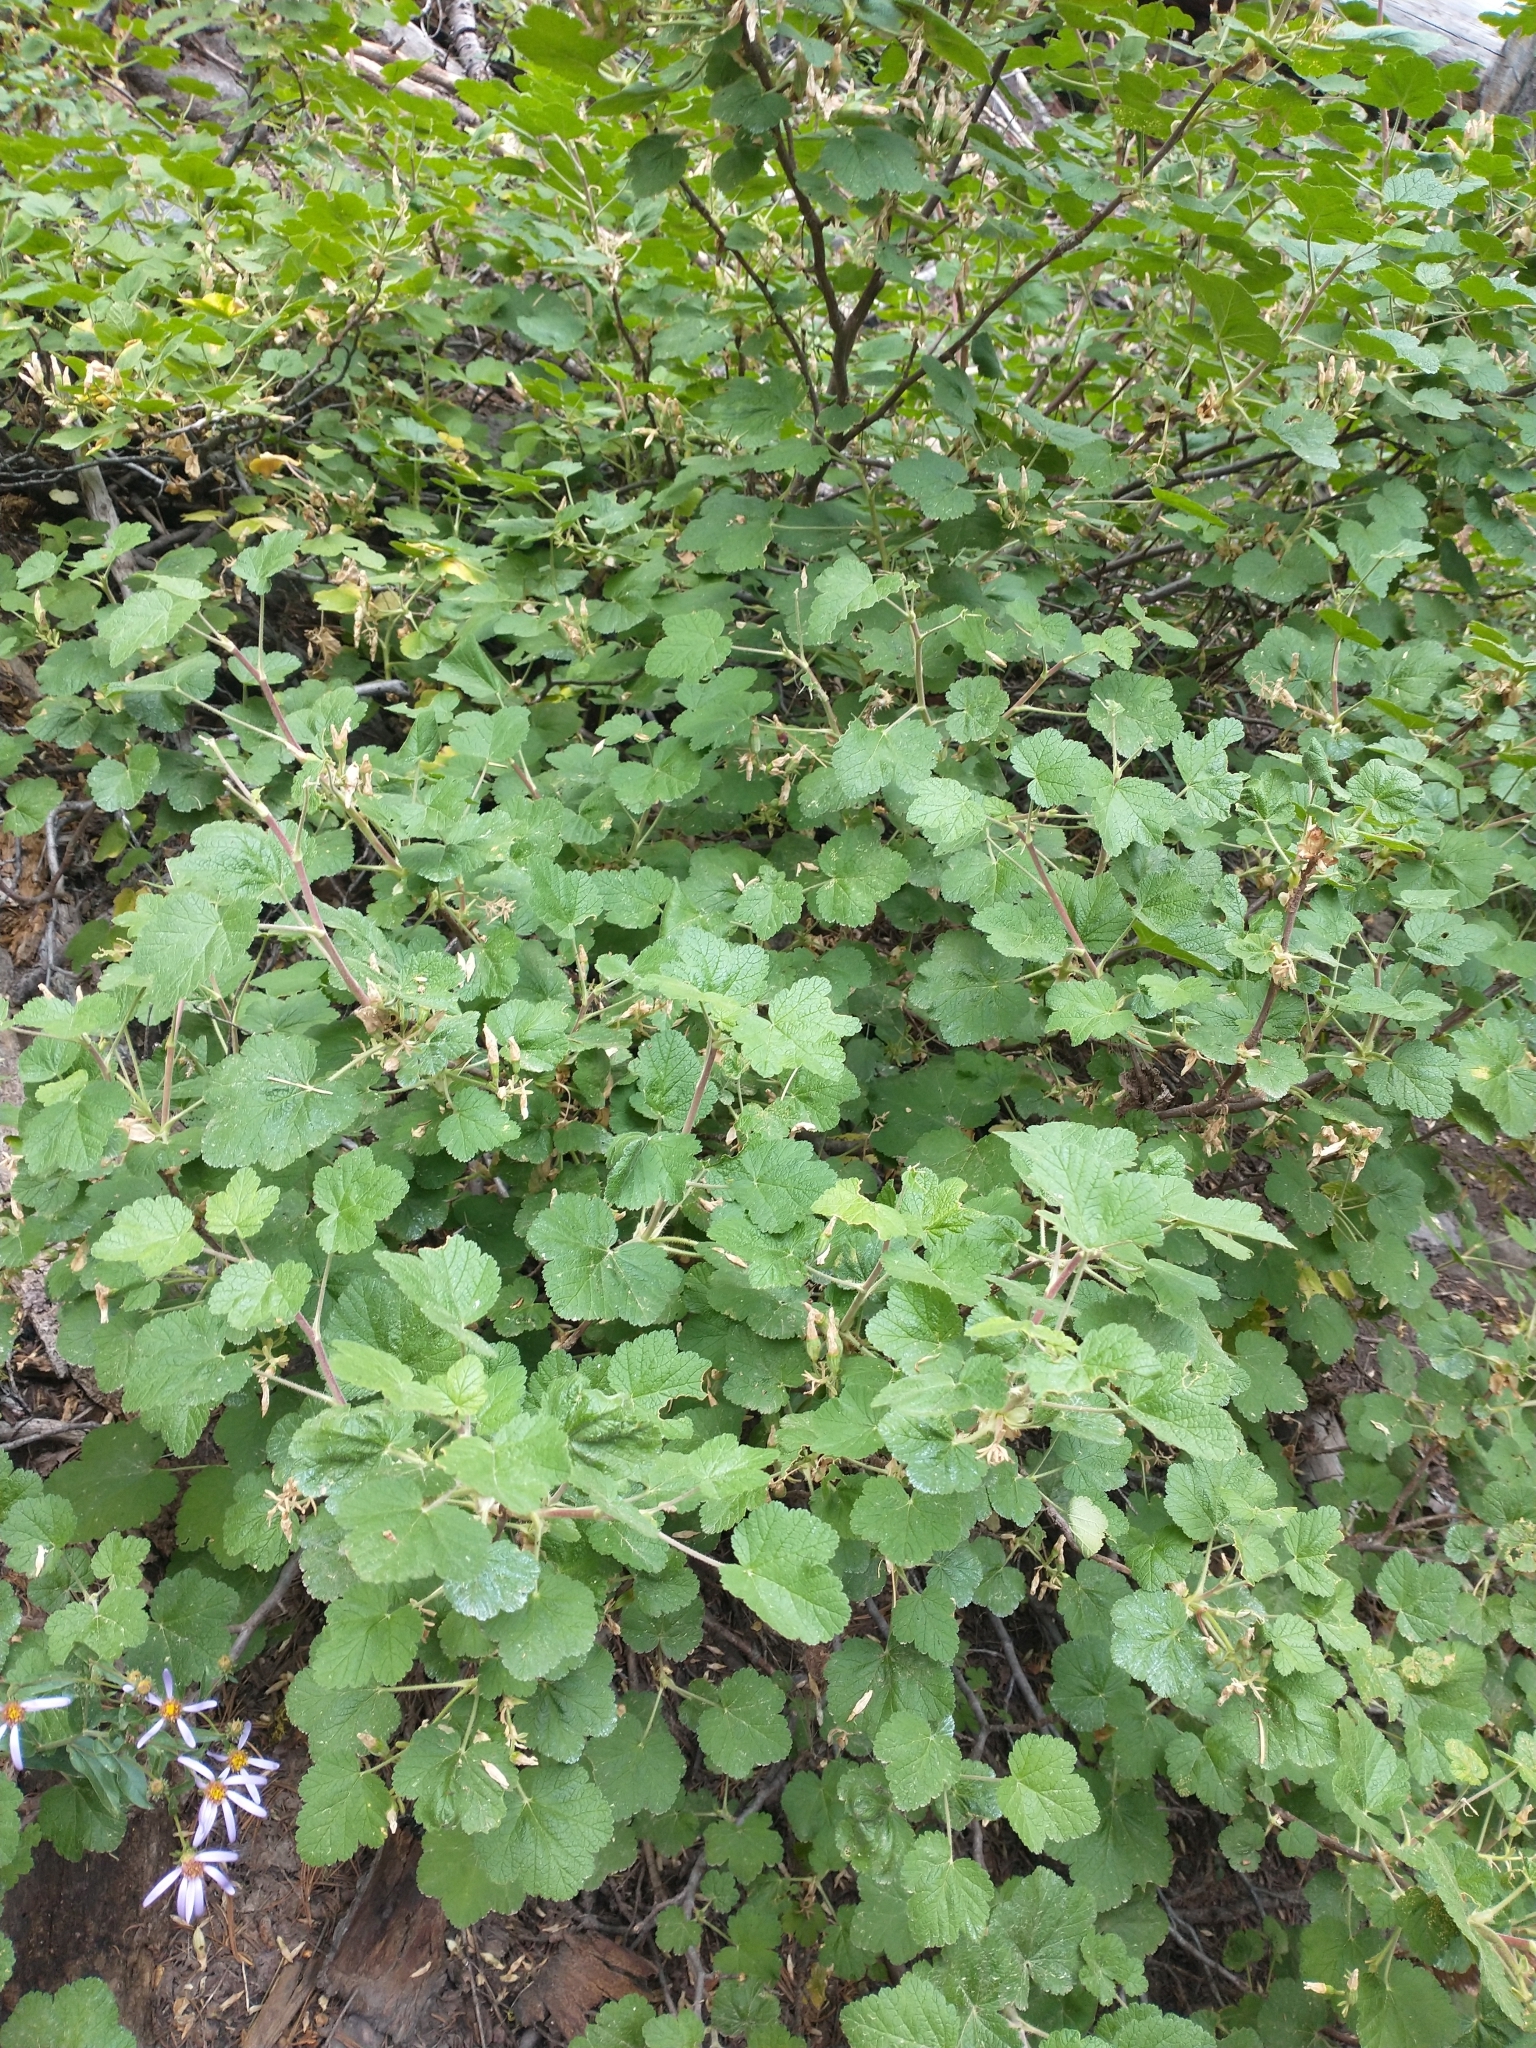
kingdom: Plantae
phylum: Tracheophyta
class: Magnoliopsida
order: Saxifragales
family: Grossulariaceae
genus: Ribes
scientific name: Ribes viscosissimum
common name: Sticky currant
